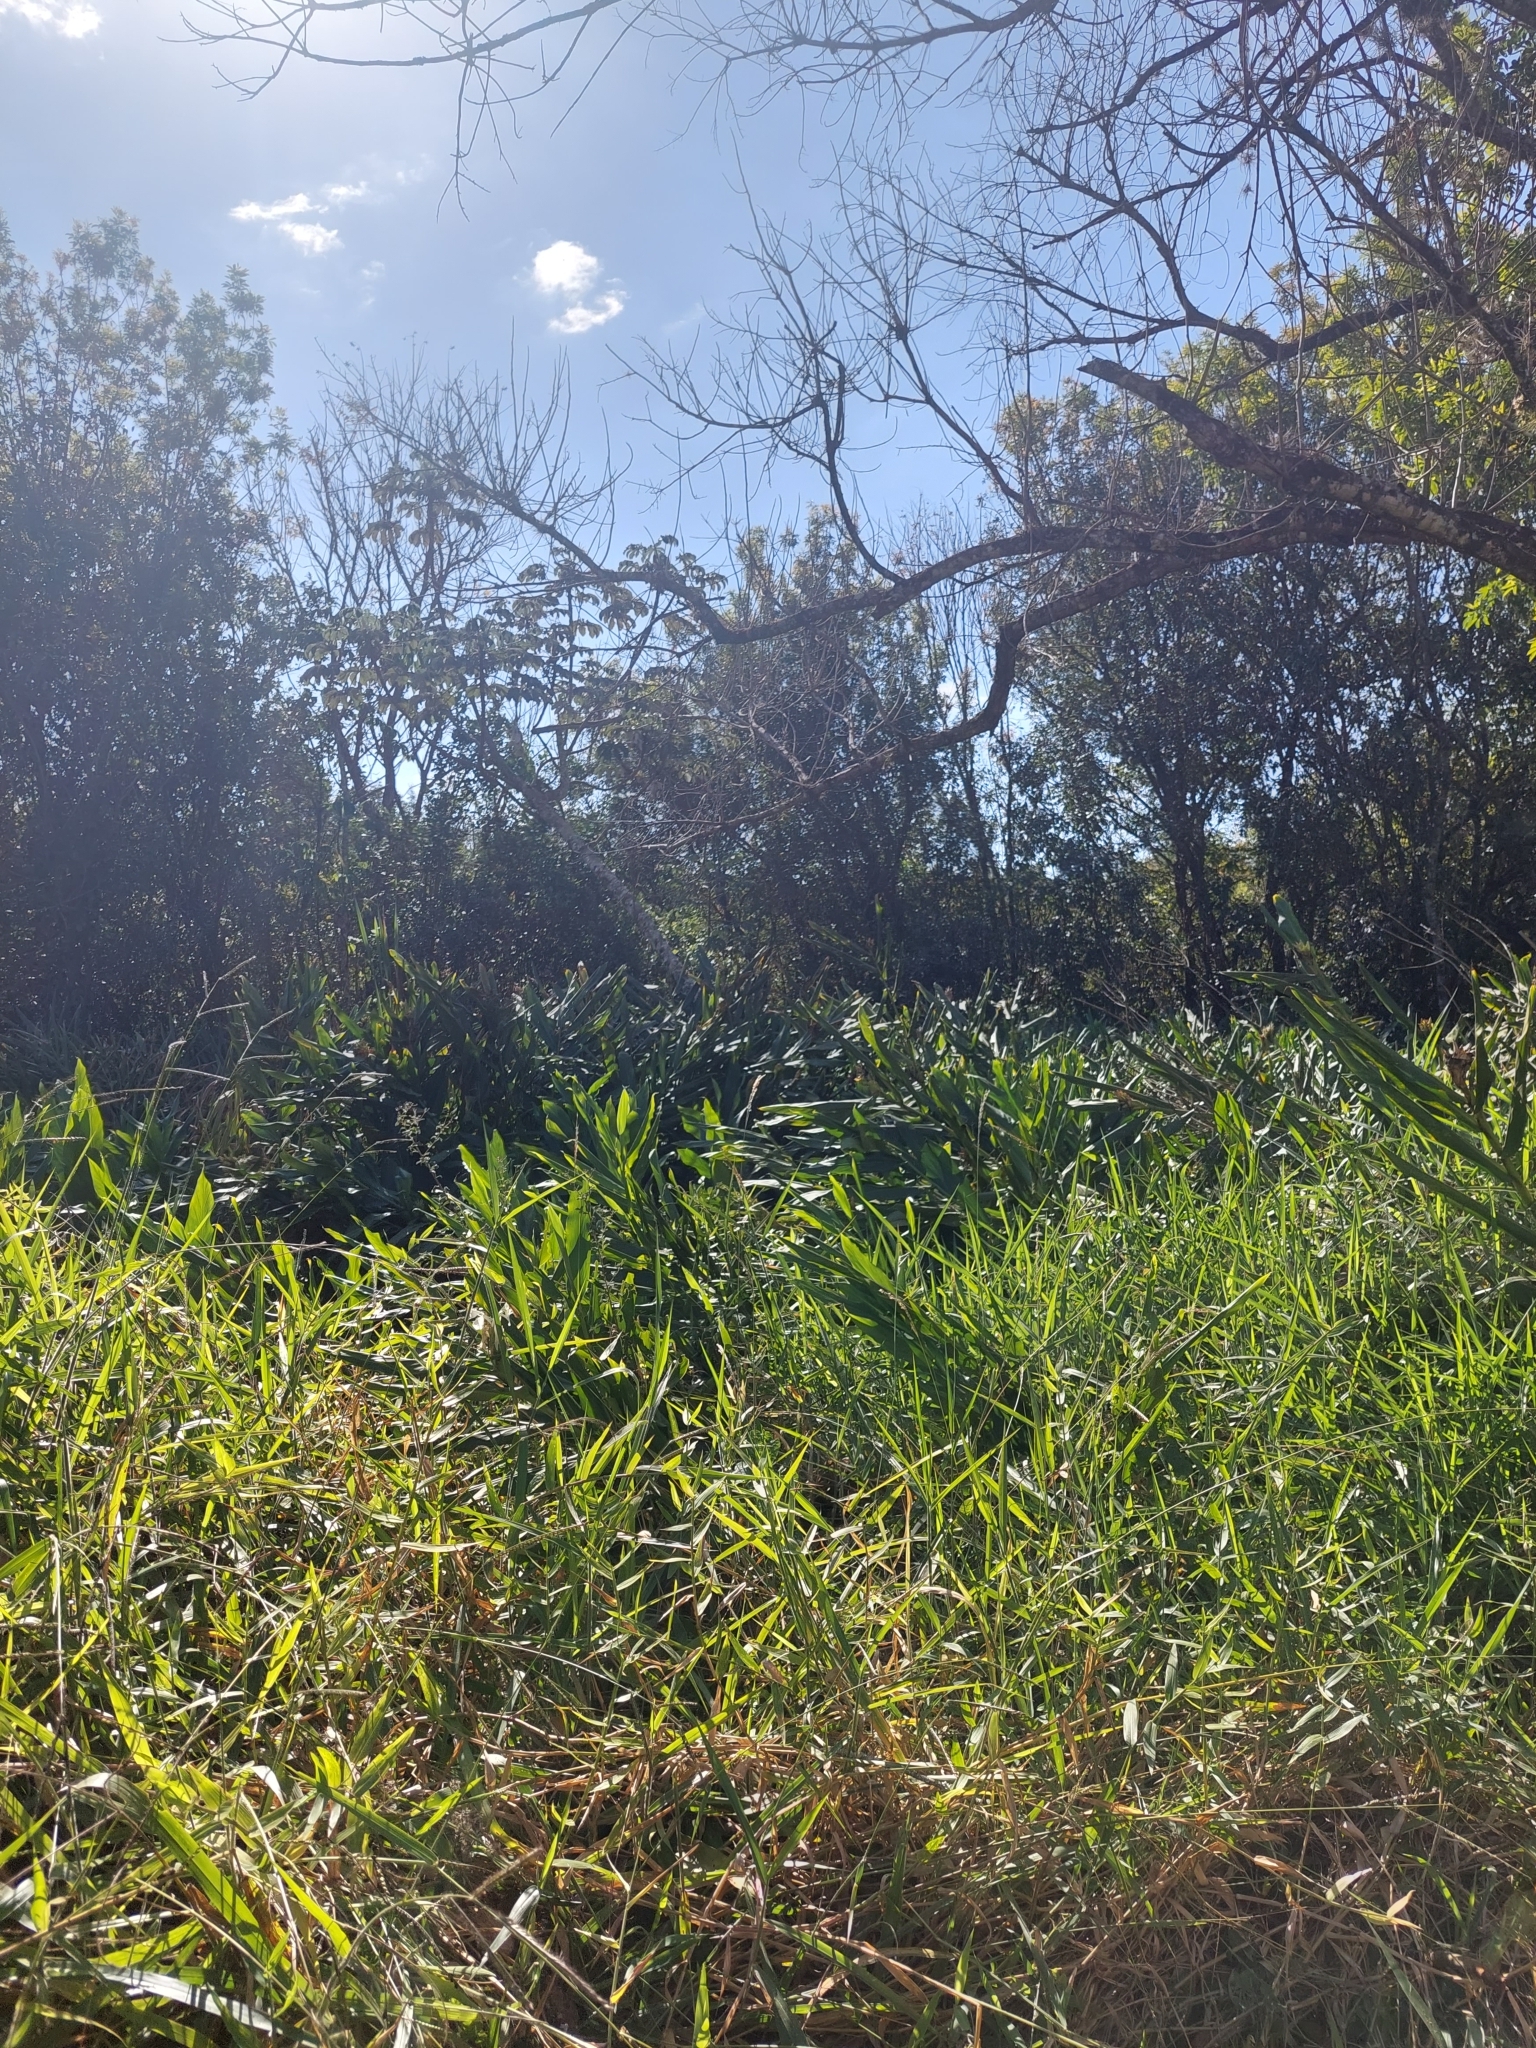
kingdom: Plantae
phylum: Tracheophyta
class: Liliopsida
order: Zingiberales
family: Zingiberaceae
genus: Hedychium
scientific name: Hedychium coronarium
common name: White garland-lily
